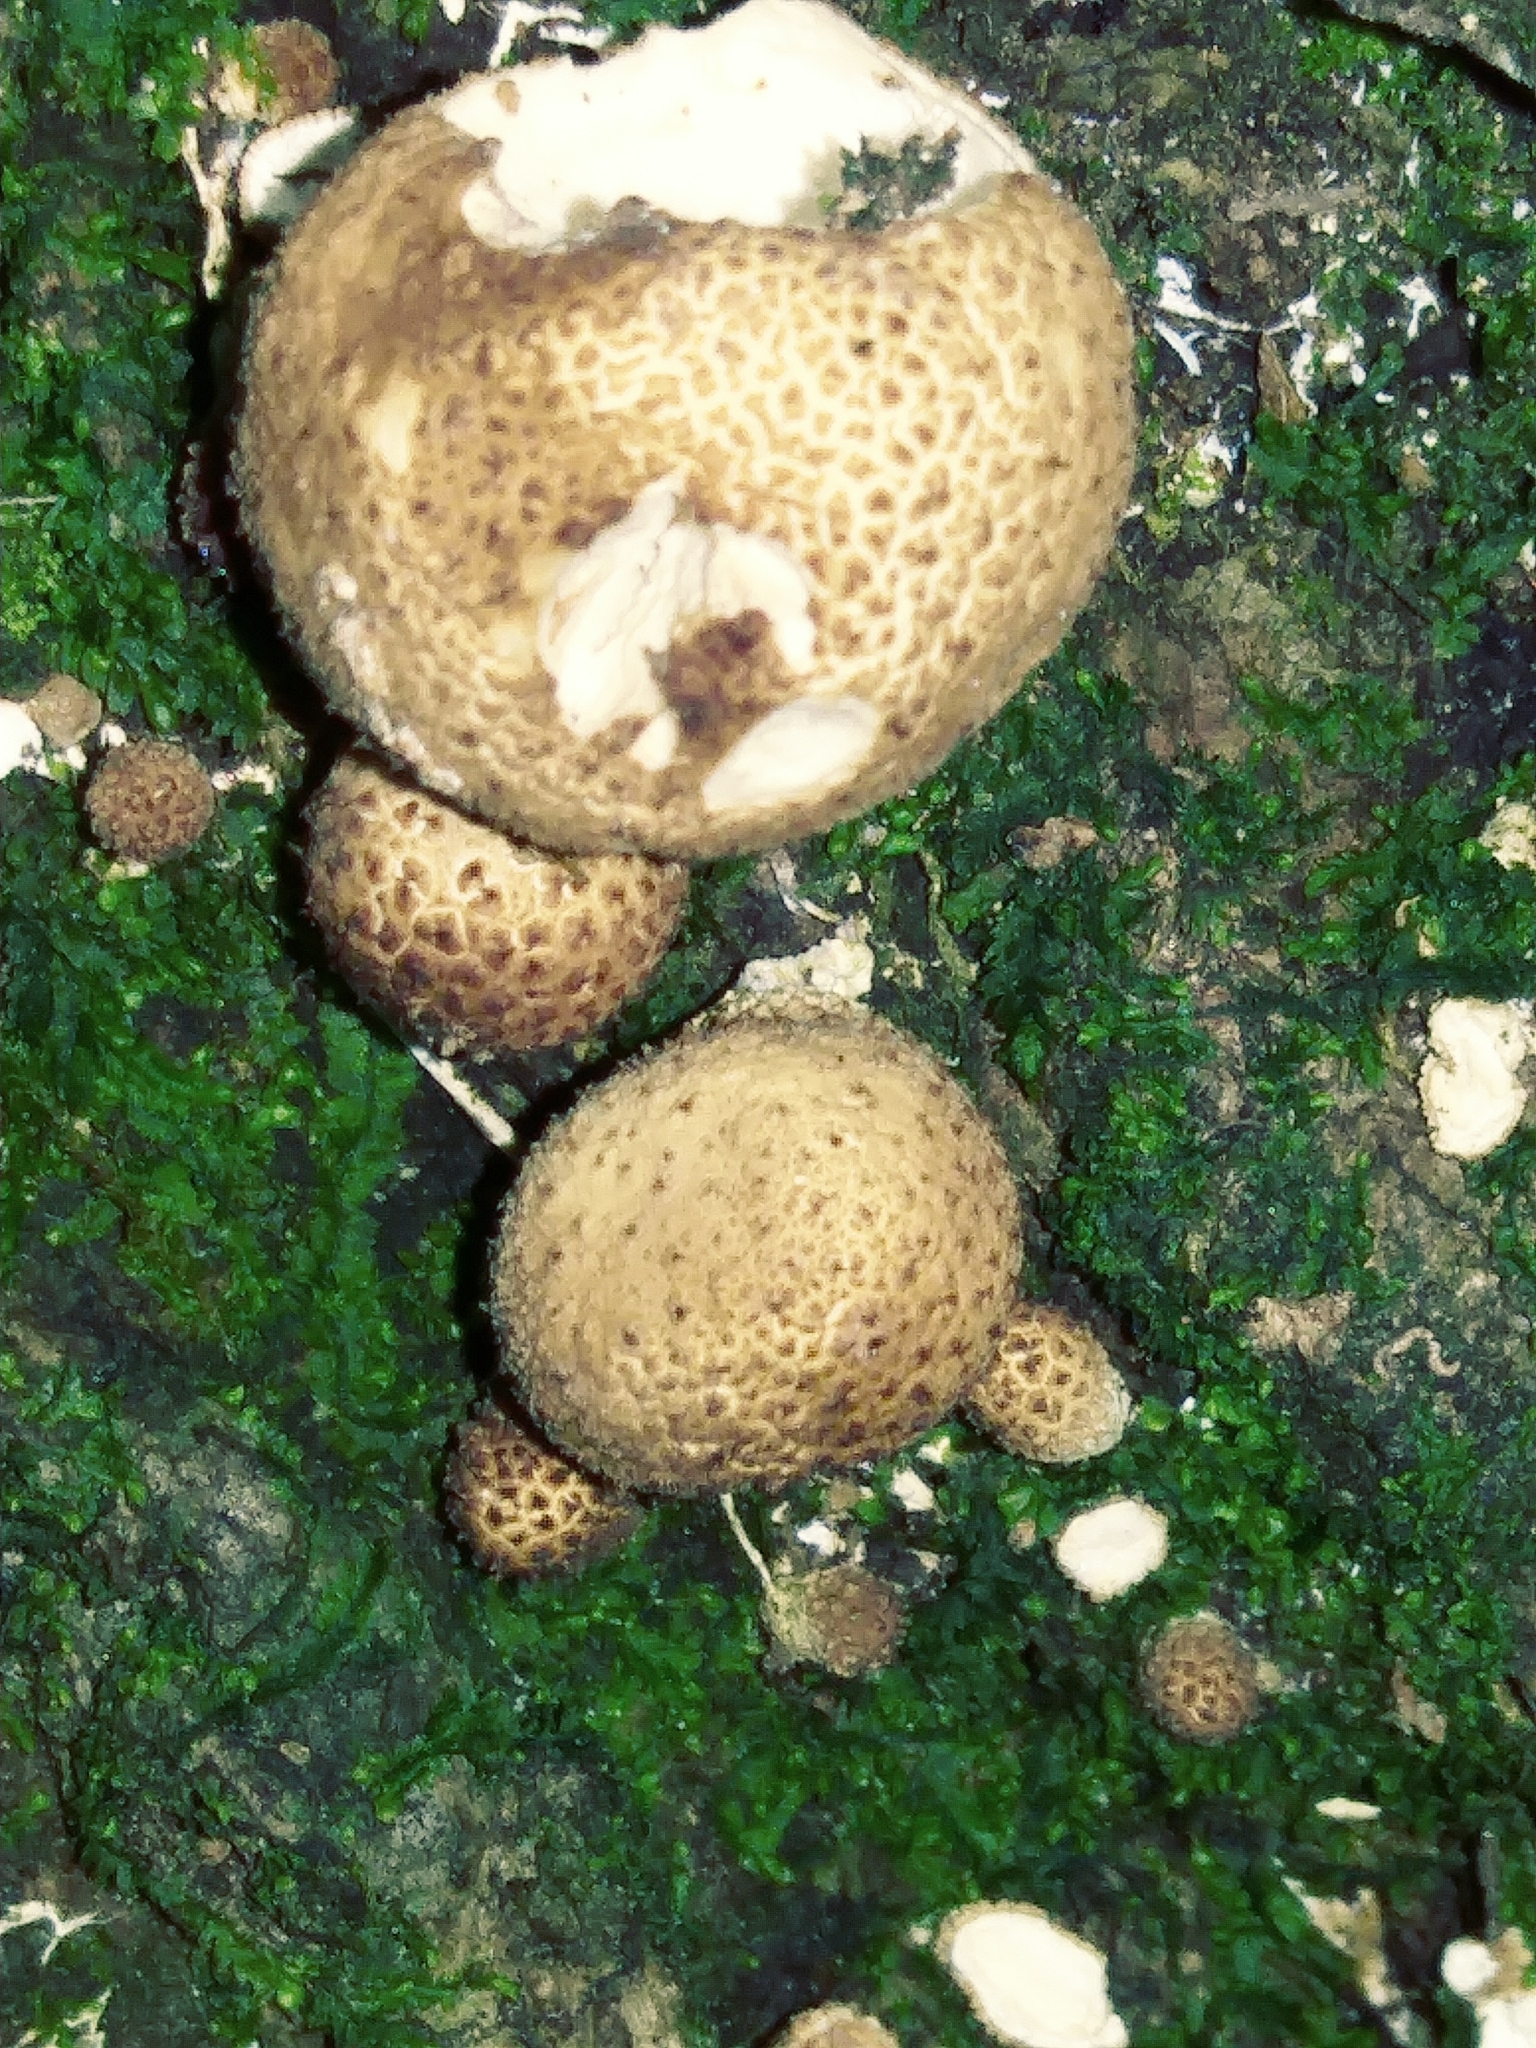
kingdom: Fungi
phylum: Basidiomycota
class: Agaricomycetes
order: Agaricales
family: Lycoperdaceae
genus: Apioperdon
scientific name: Apioperdon pyriforme
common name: Pear-shaped puffball
